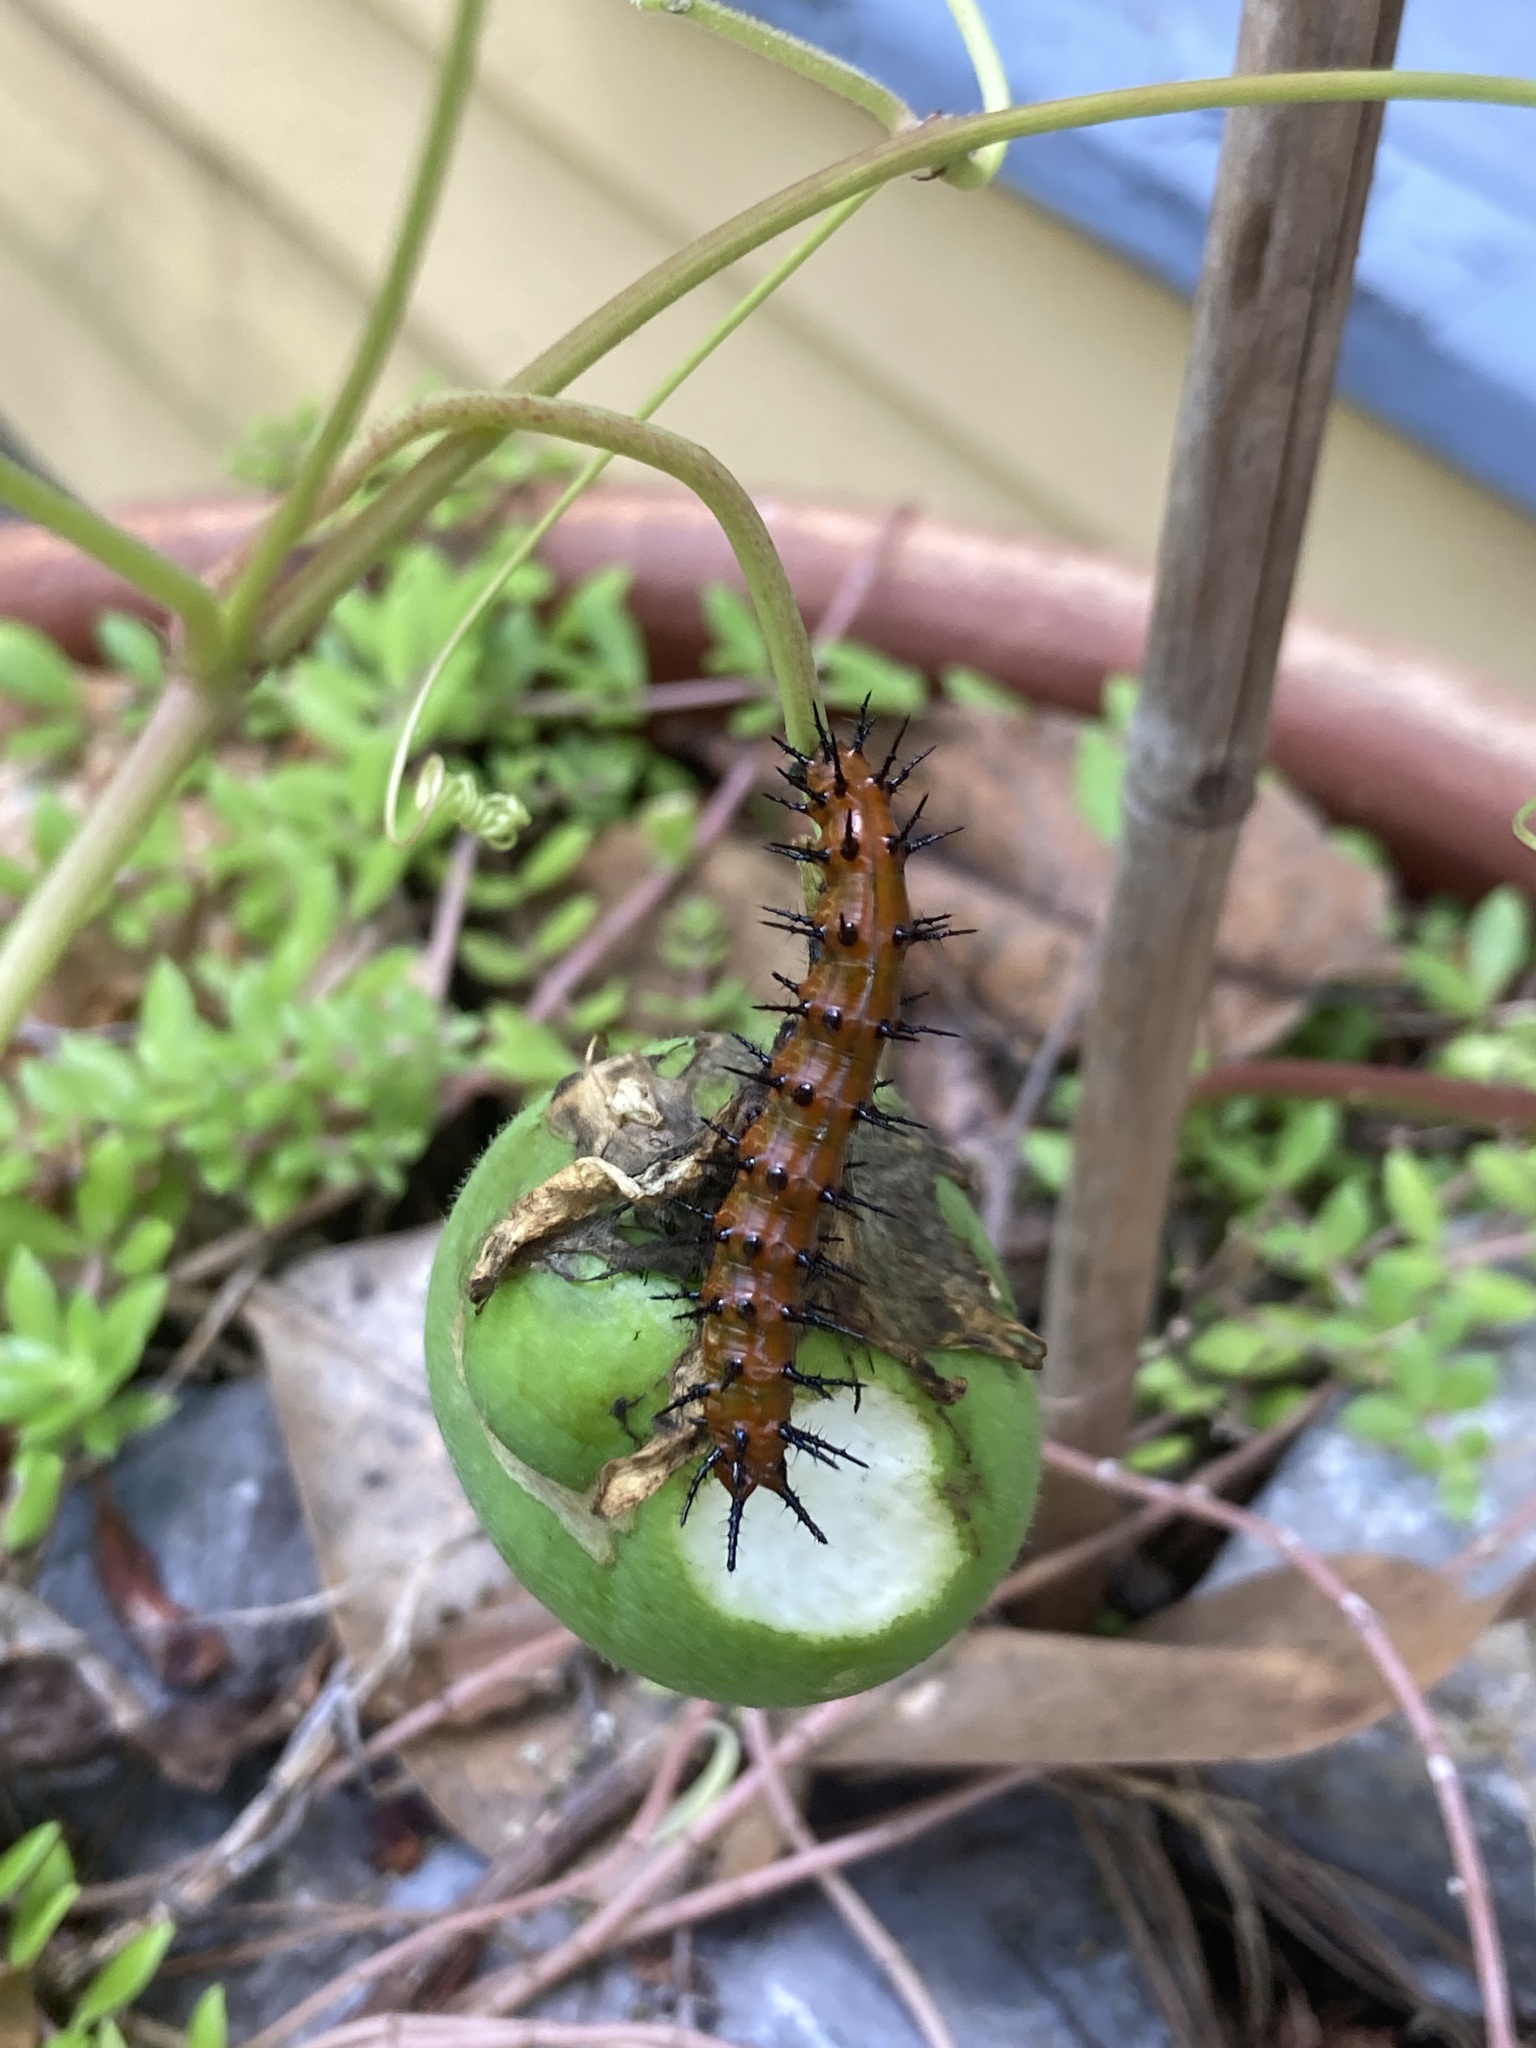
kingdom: Animalia
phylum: Arthropoda
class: Insecta
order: Lepidoptera
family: Nymphalidae
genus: Dione
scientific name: Dione vanillae
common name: Gulf fritillary
